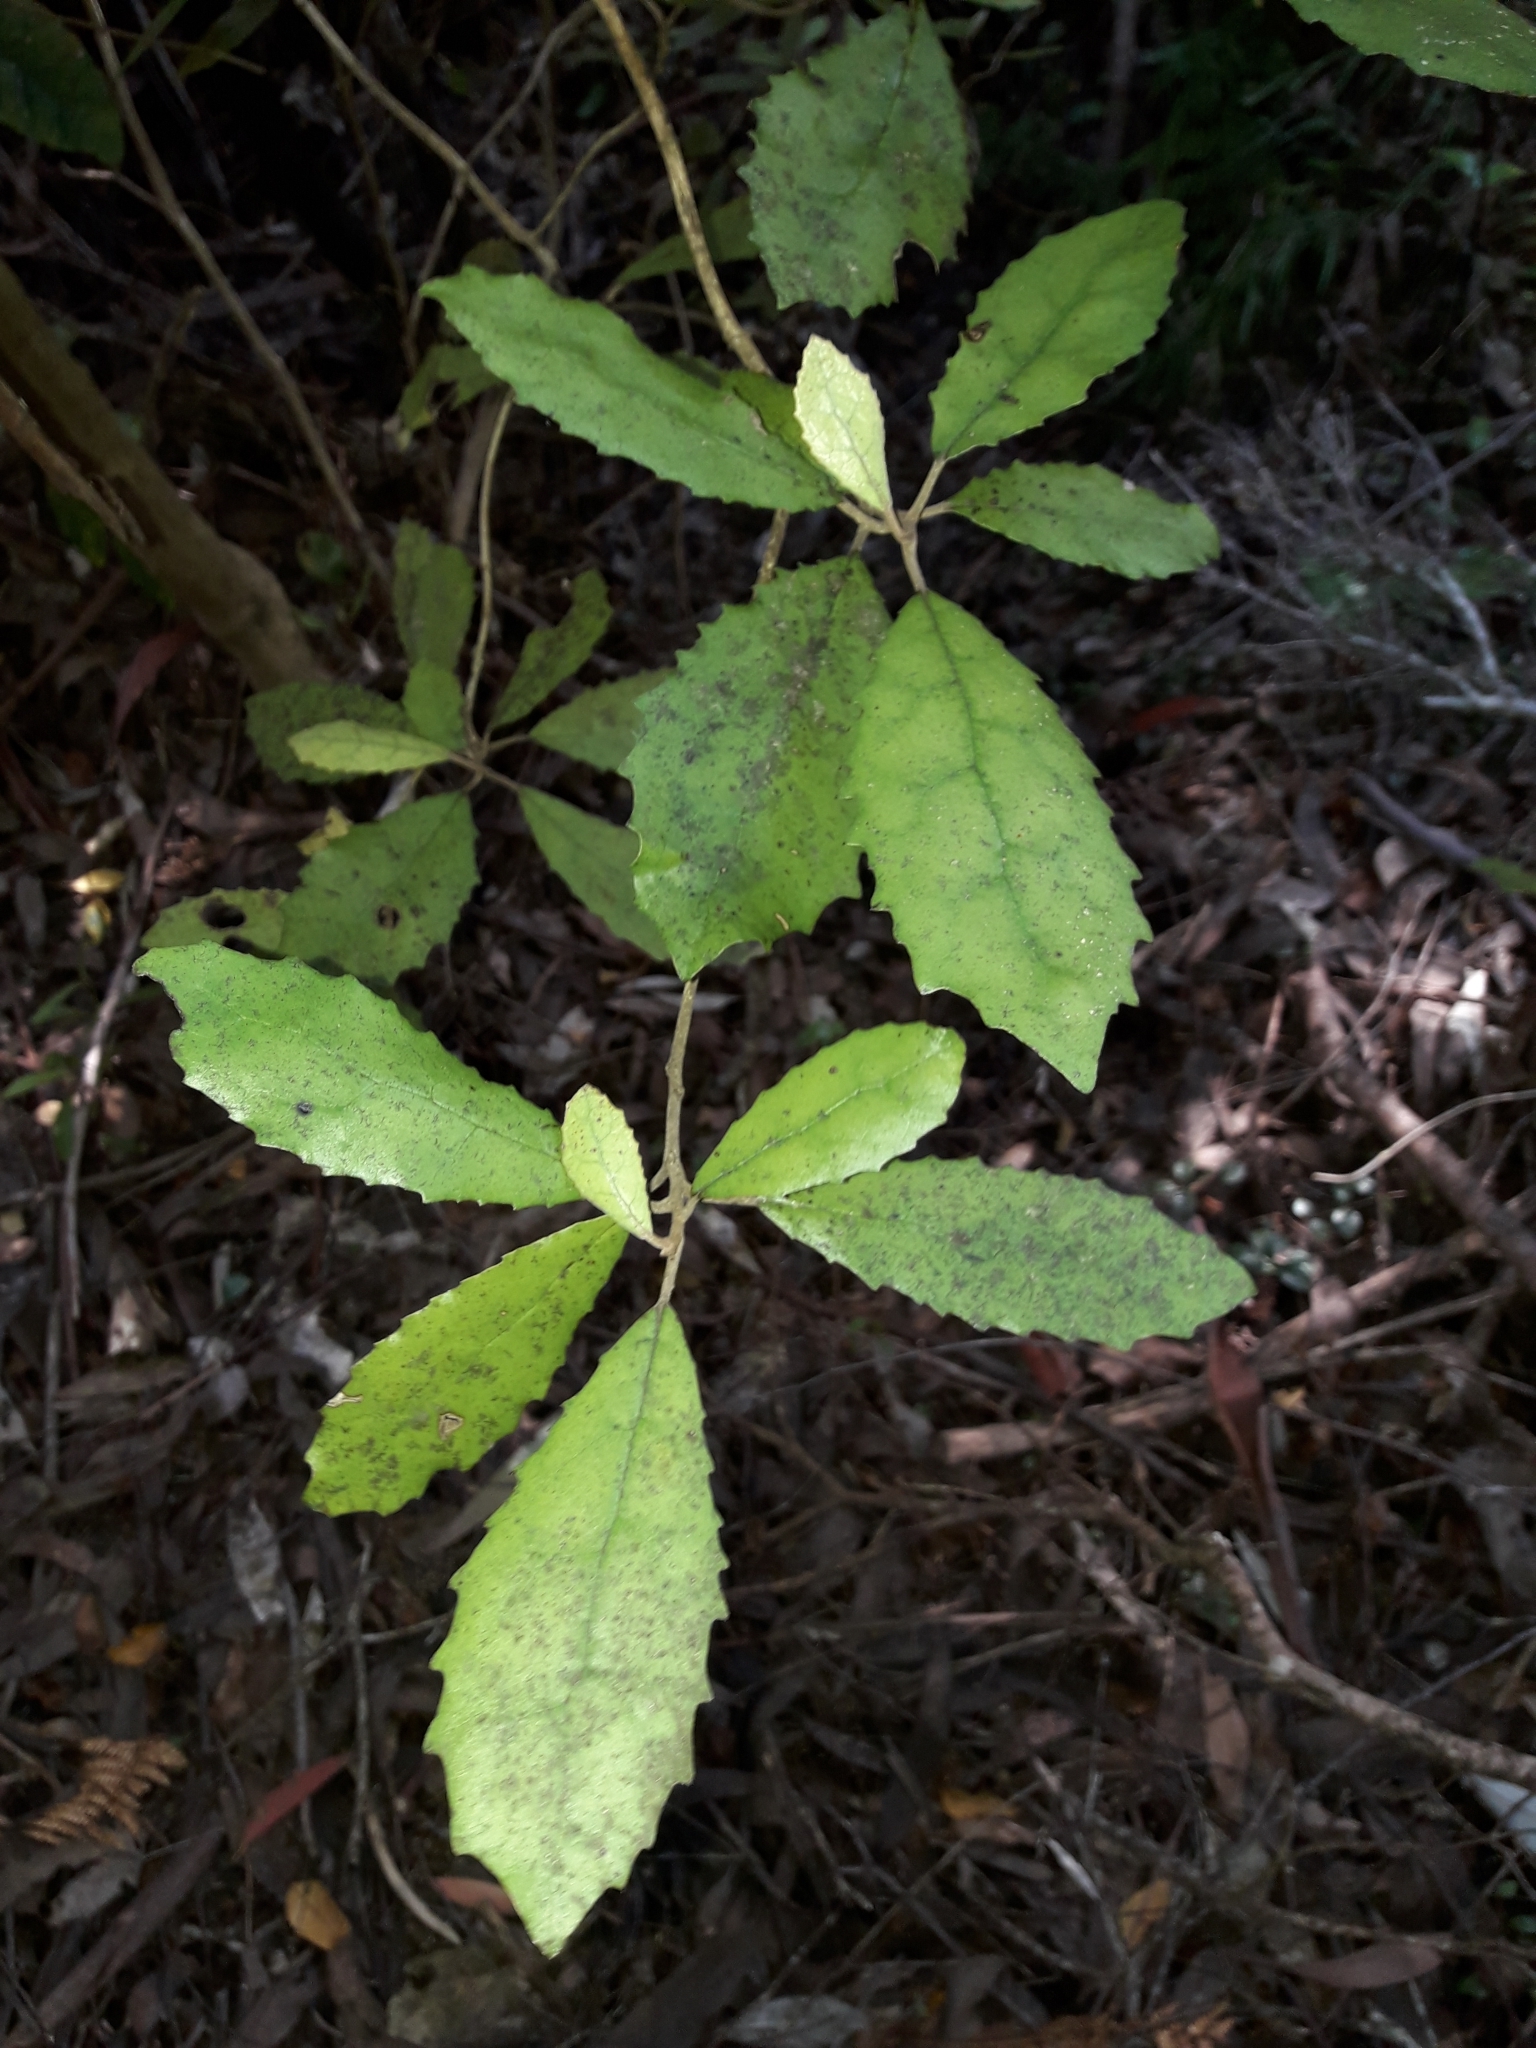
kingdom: Plantae
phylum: Tracheophyta
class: Magnoliopsida
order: Asterales
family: Asteraceae
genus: Olearia
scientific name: Olearia rani
